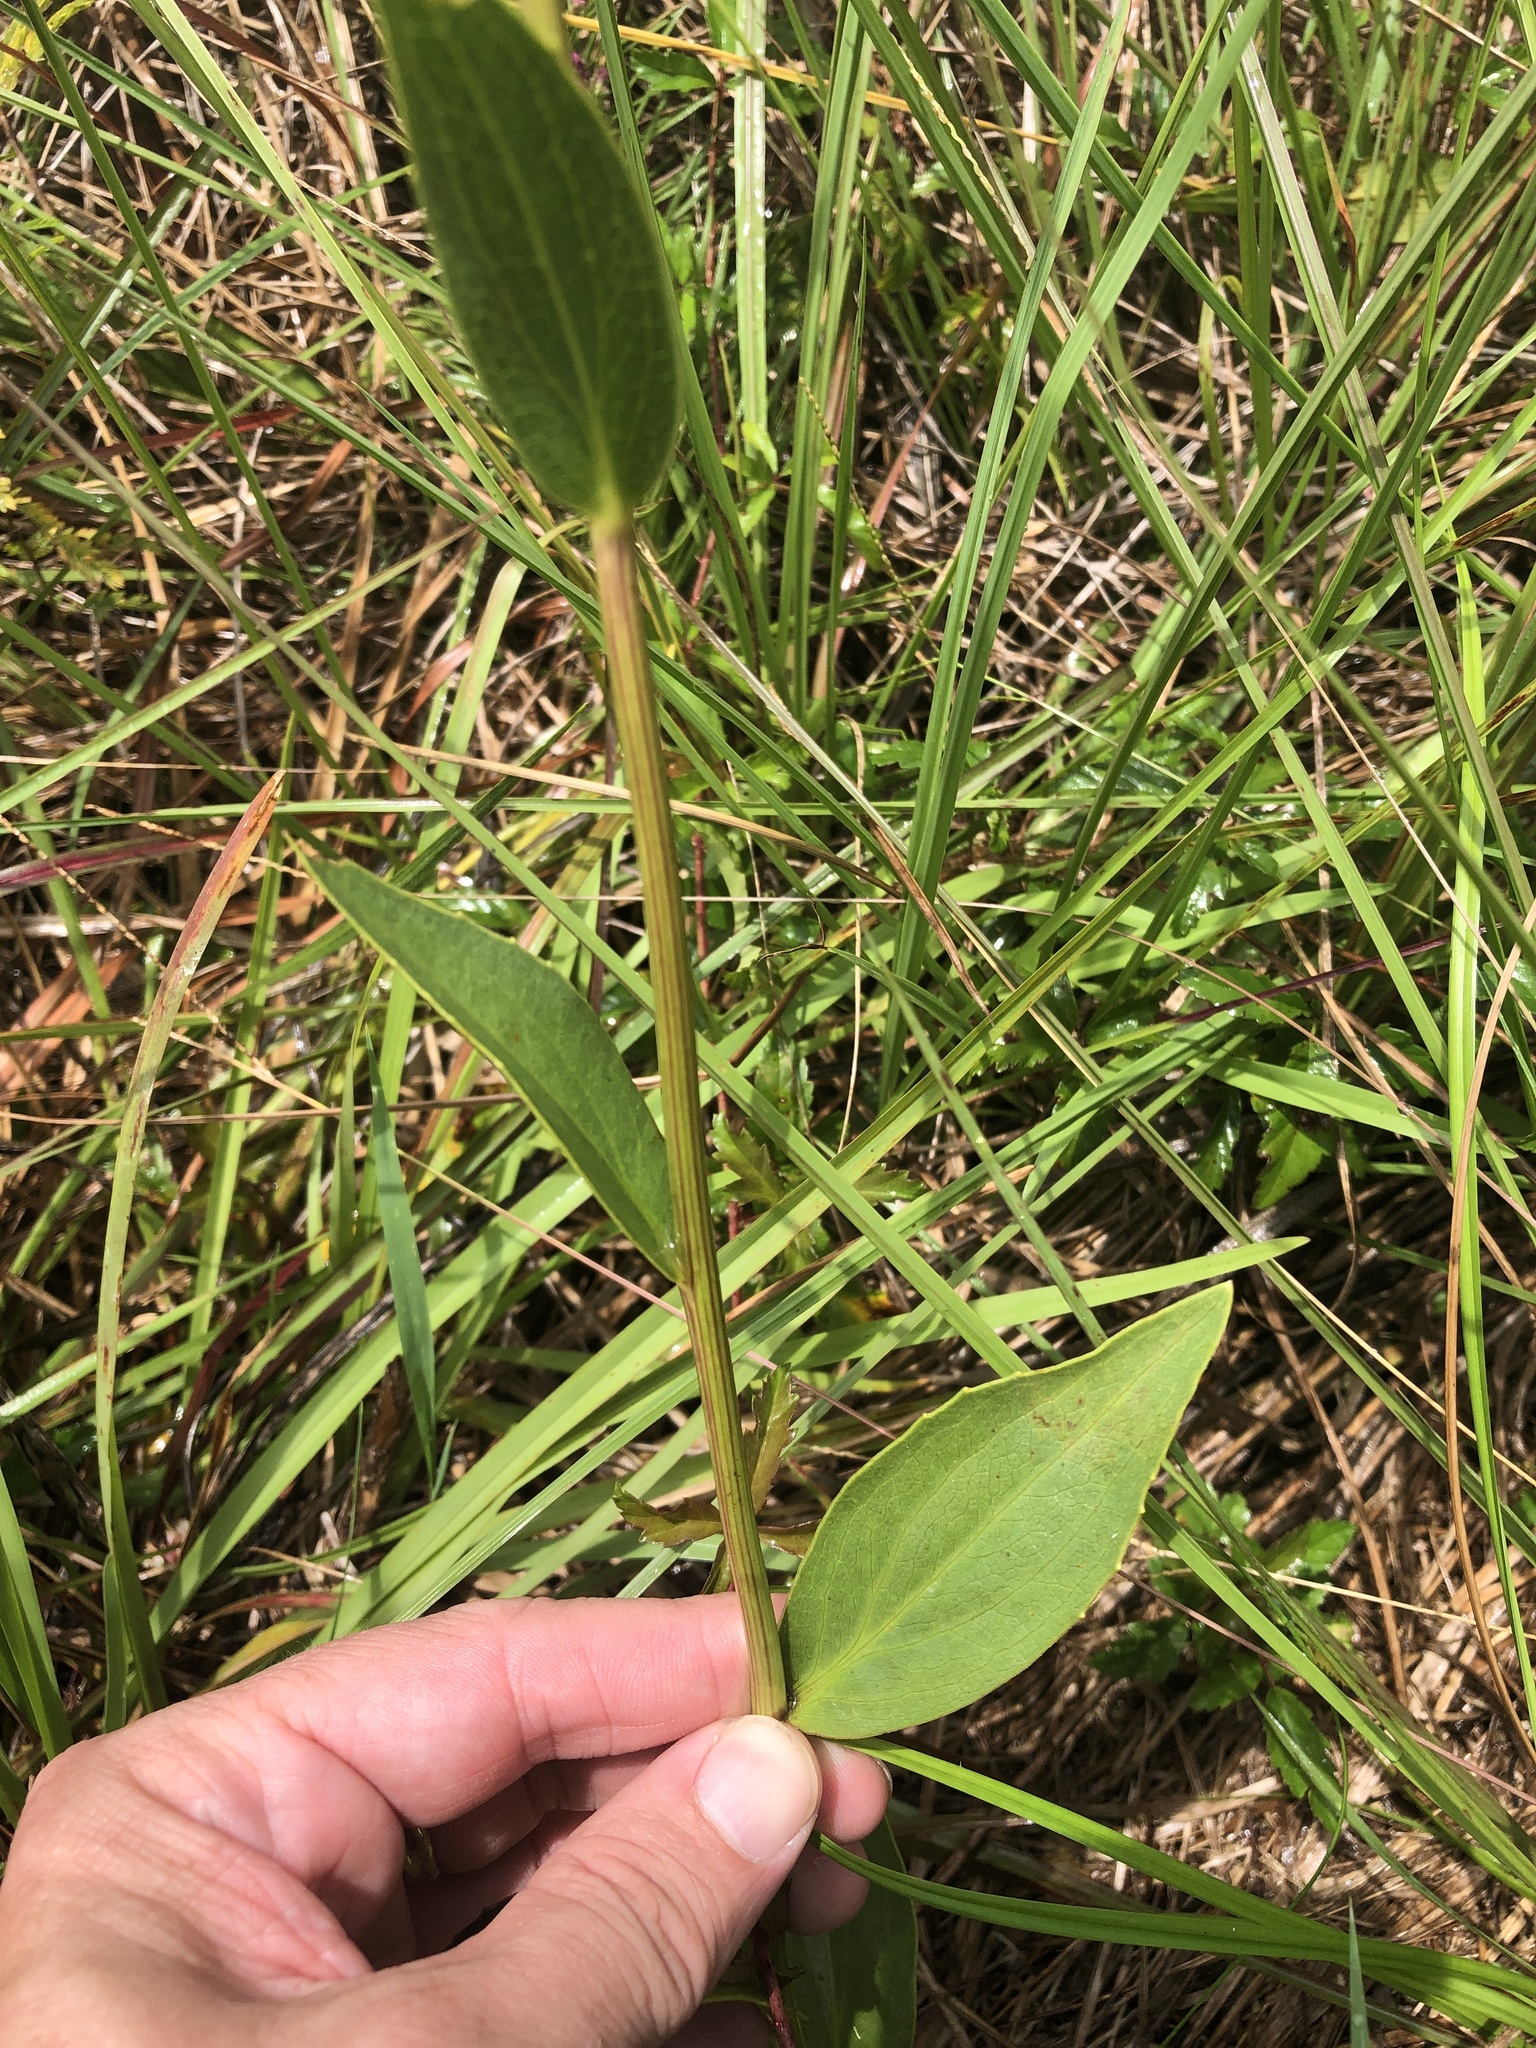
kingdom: Plantae
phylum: Tracheophyta
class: Magnoliopsida
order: Asterales
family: Asteraceae
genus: Rudbeckia
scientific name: Rudbeckia texana
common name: Texas coneflower
